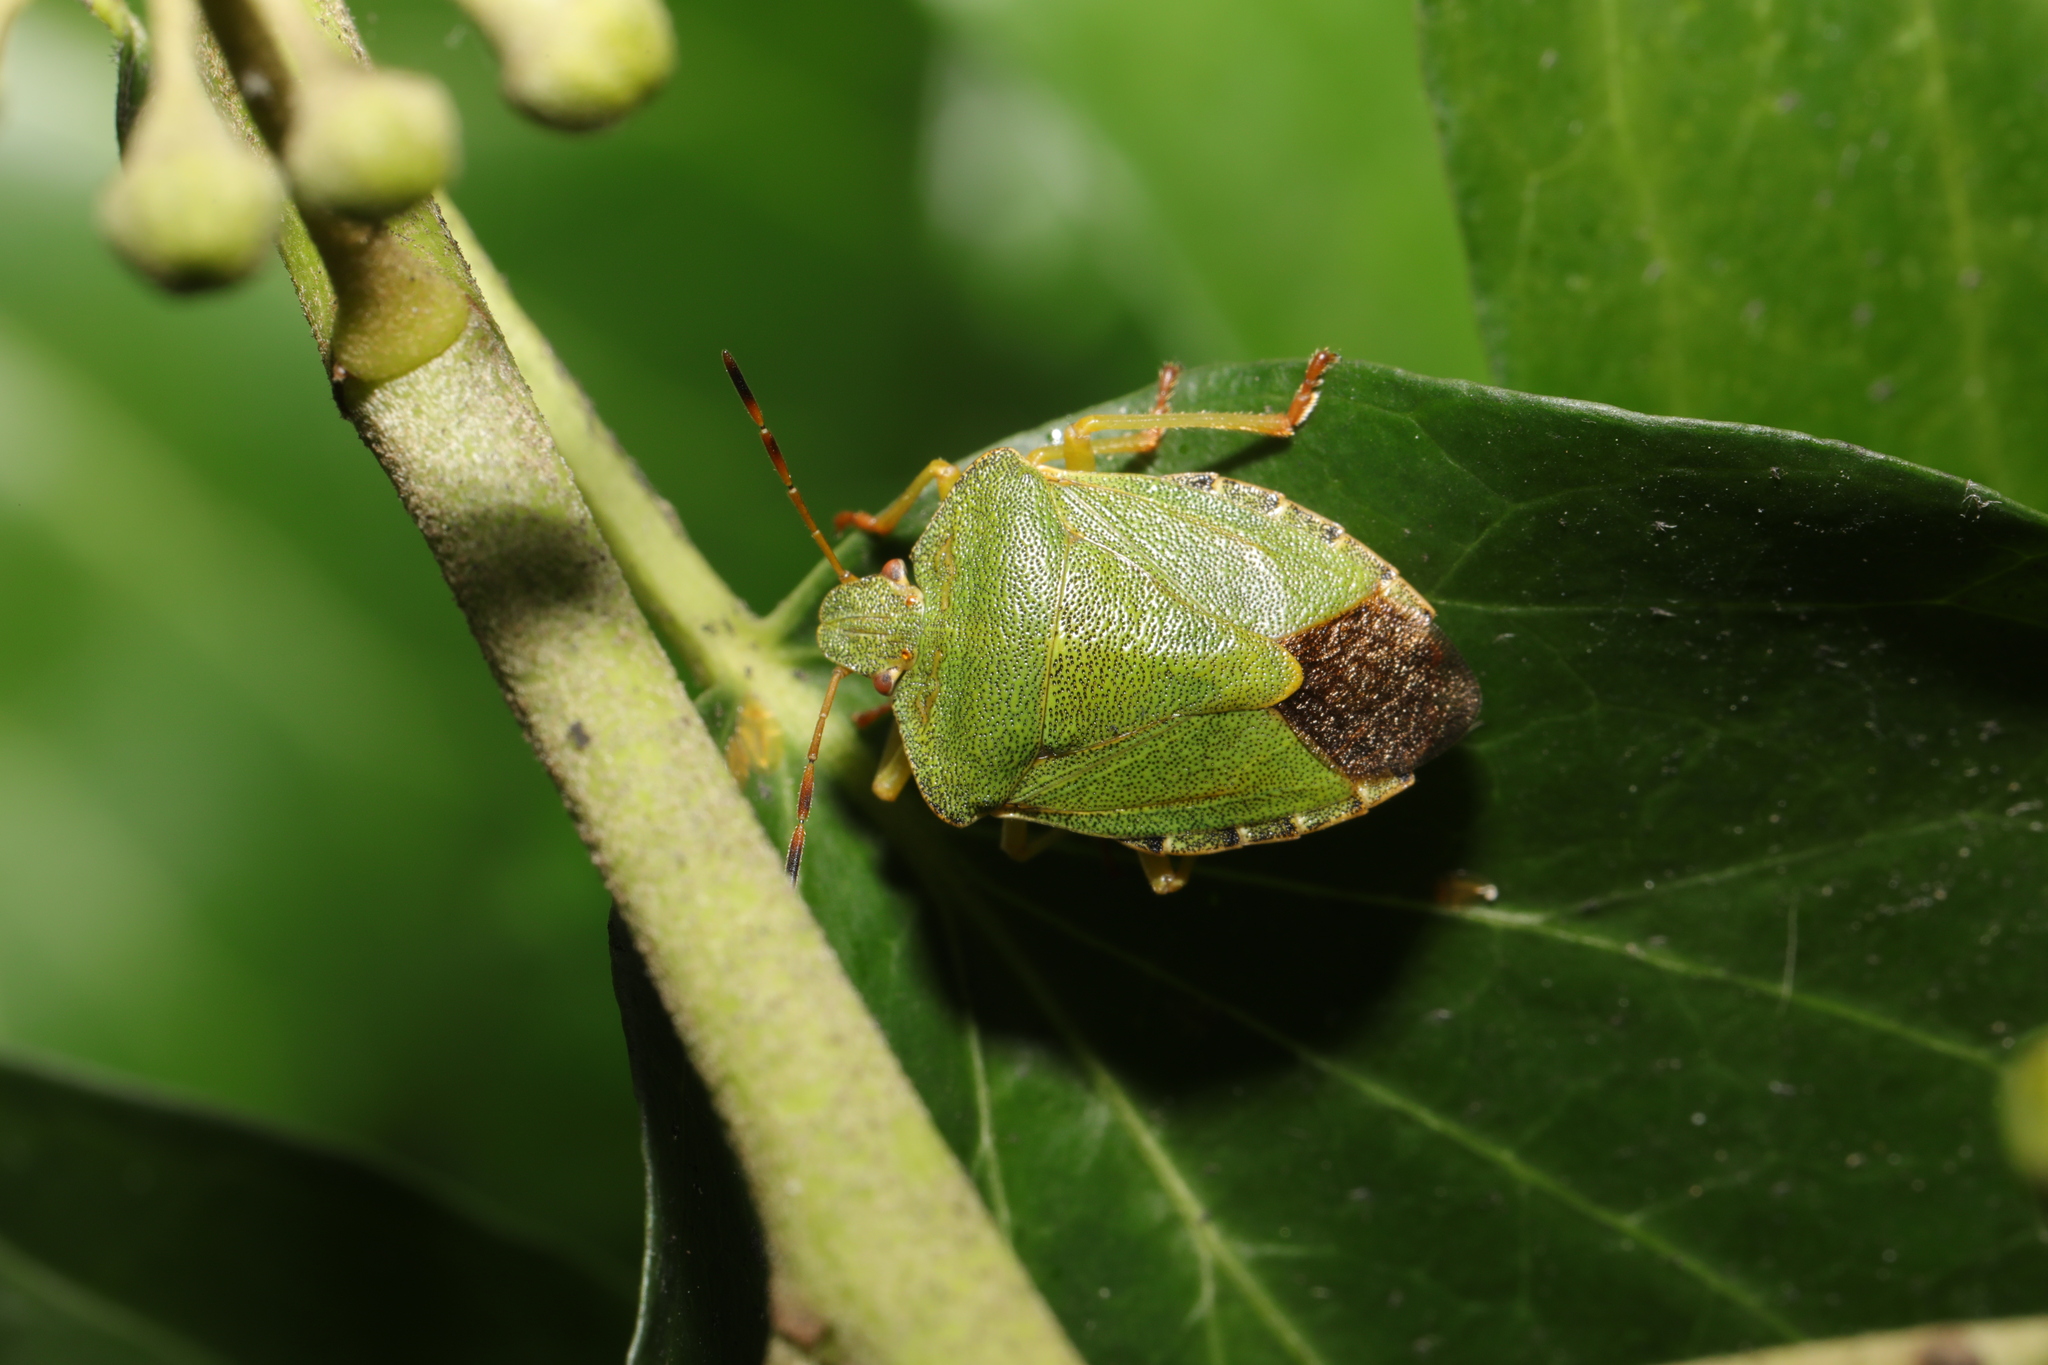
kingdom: Animalia
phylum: Arthropoda
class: Insecta
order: Hemiptera
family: Pentatomidae
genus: Palomena
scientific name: Palomena prasina
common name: Green shieldbug
